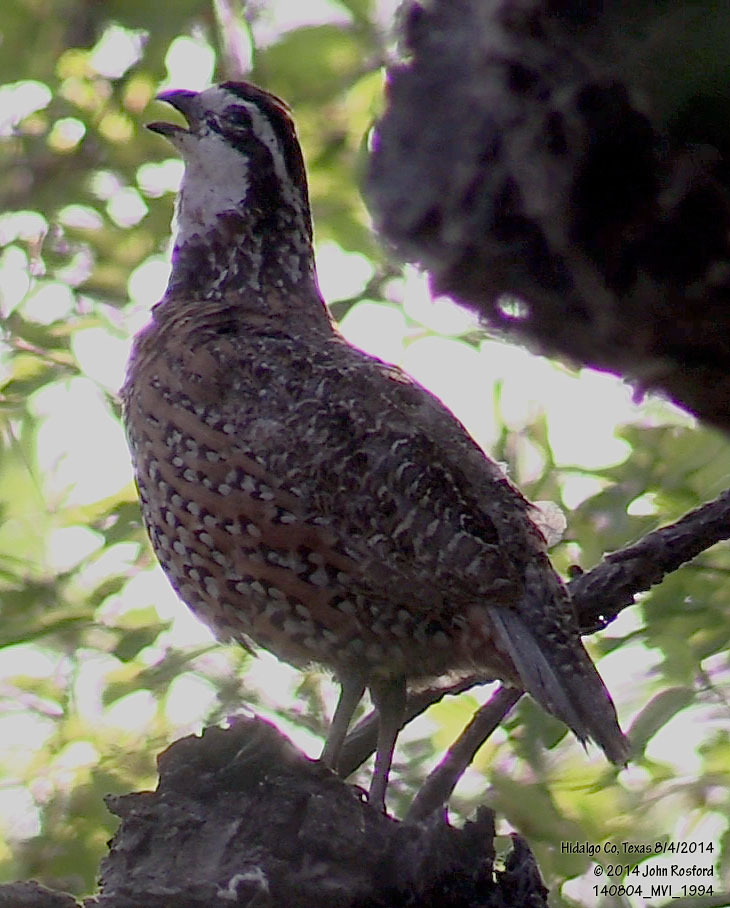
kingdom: Animalia
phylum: Chordata
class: Aves
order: Galliformes
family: Odontophoridae
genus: Colinus
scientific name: Colinus virginianus
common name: Northern bobwhite
